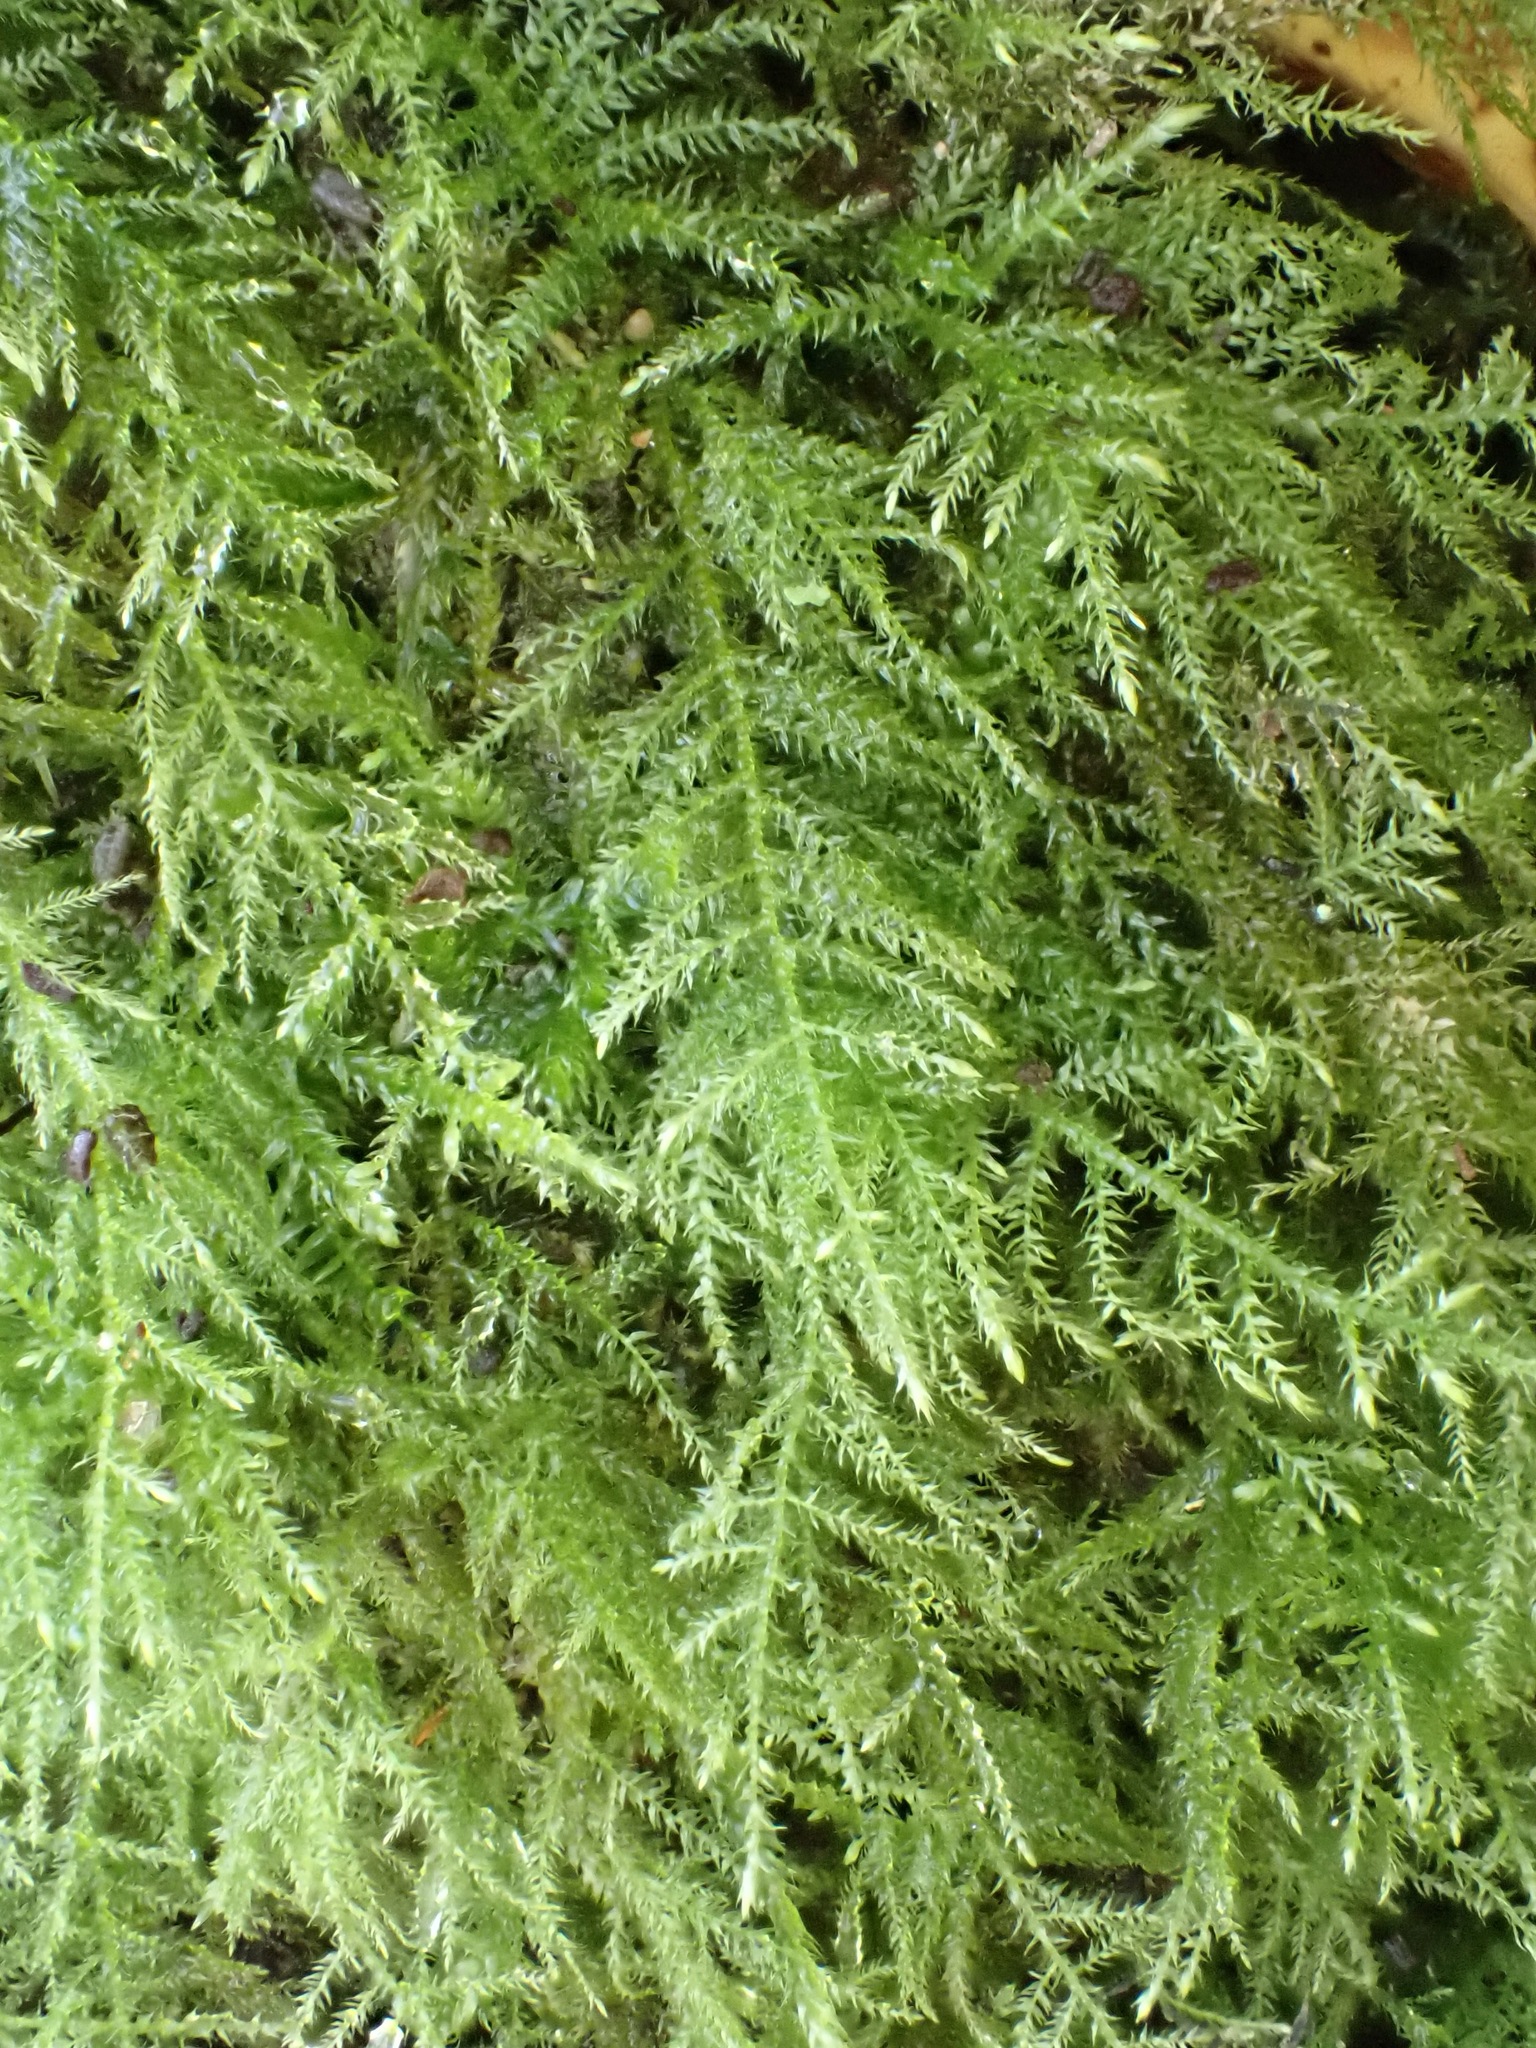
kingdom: Plantae
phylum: Bryophyta
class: Bryopsida
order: Hypnales
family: Brachytheciaceae
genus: Kindbergia
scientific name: Kindbergia praelonga
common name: Slender beaked moss
